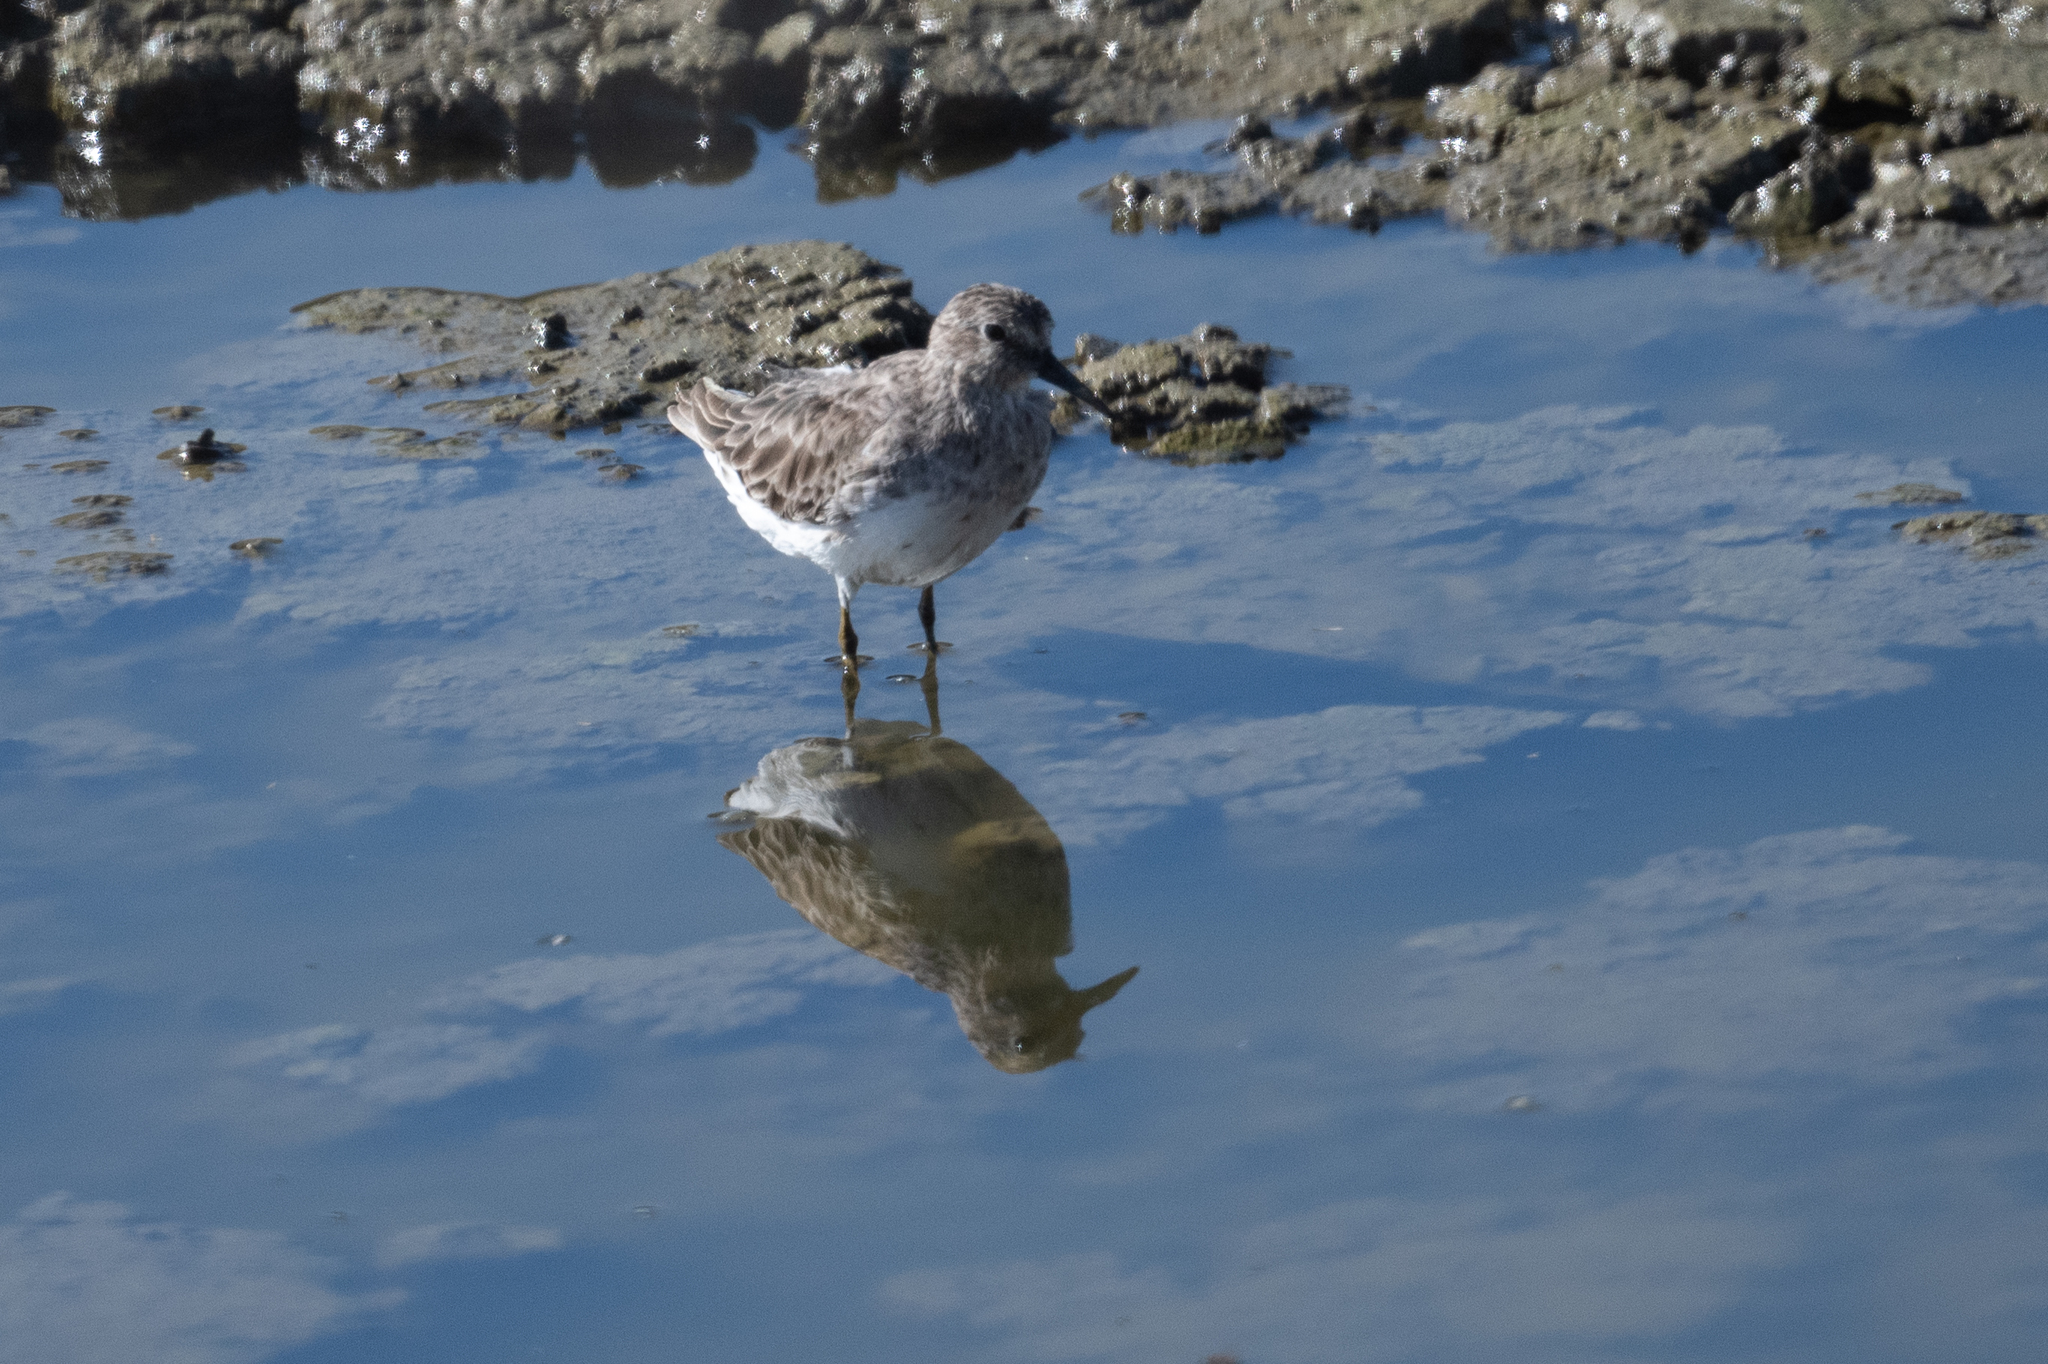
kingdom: Animalia
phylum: Chordata
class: Aves
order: Charadriiformes
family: Scolopacidae
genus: Calidris
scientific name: Calidris minutilla
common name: Least sandpiper
